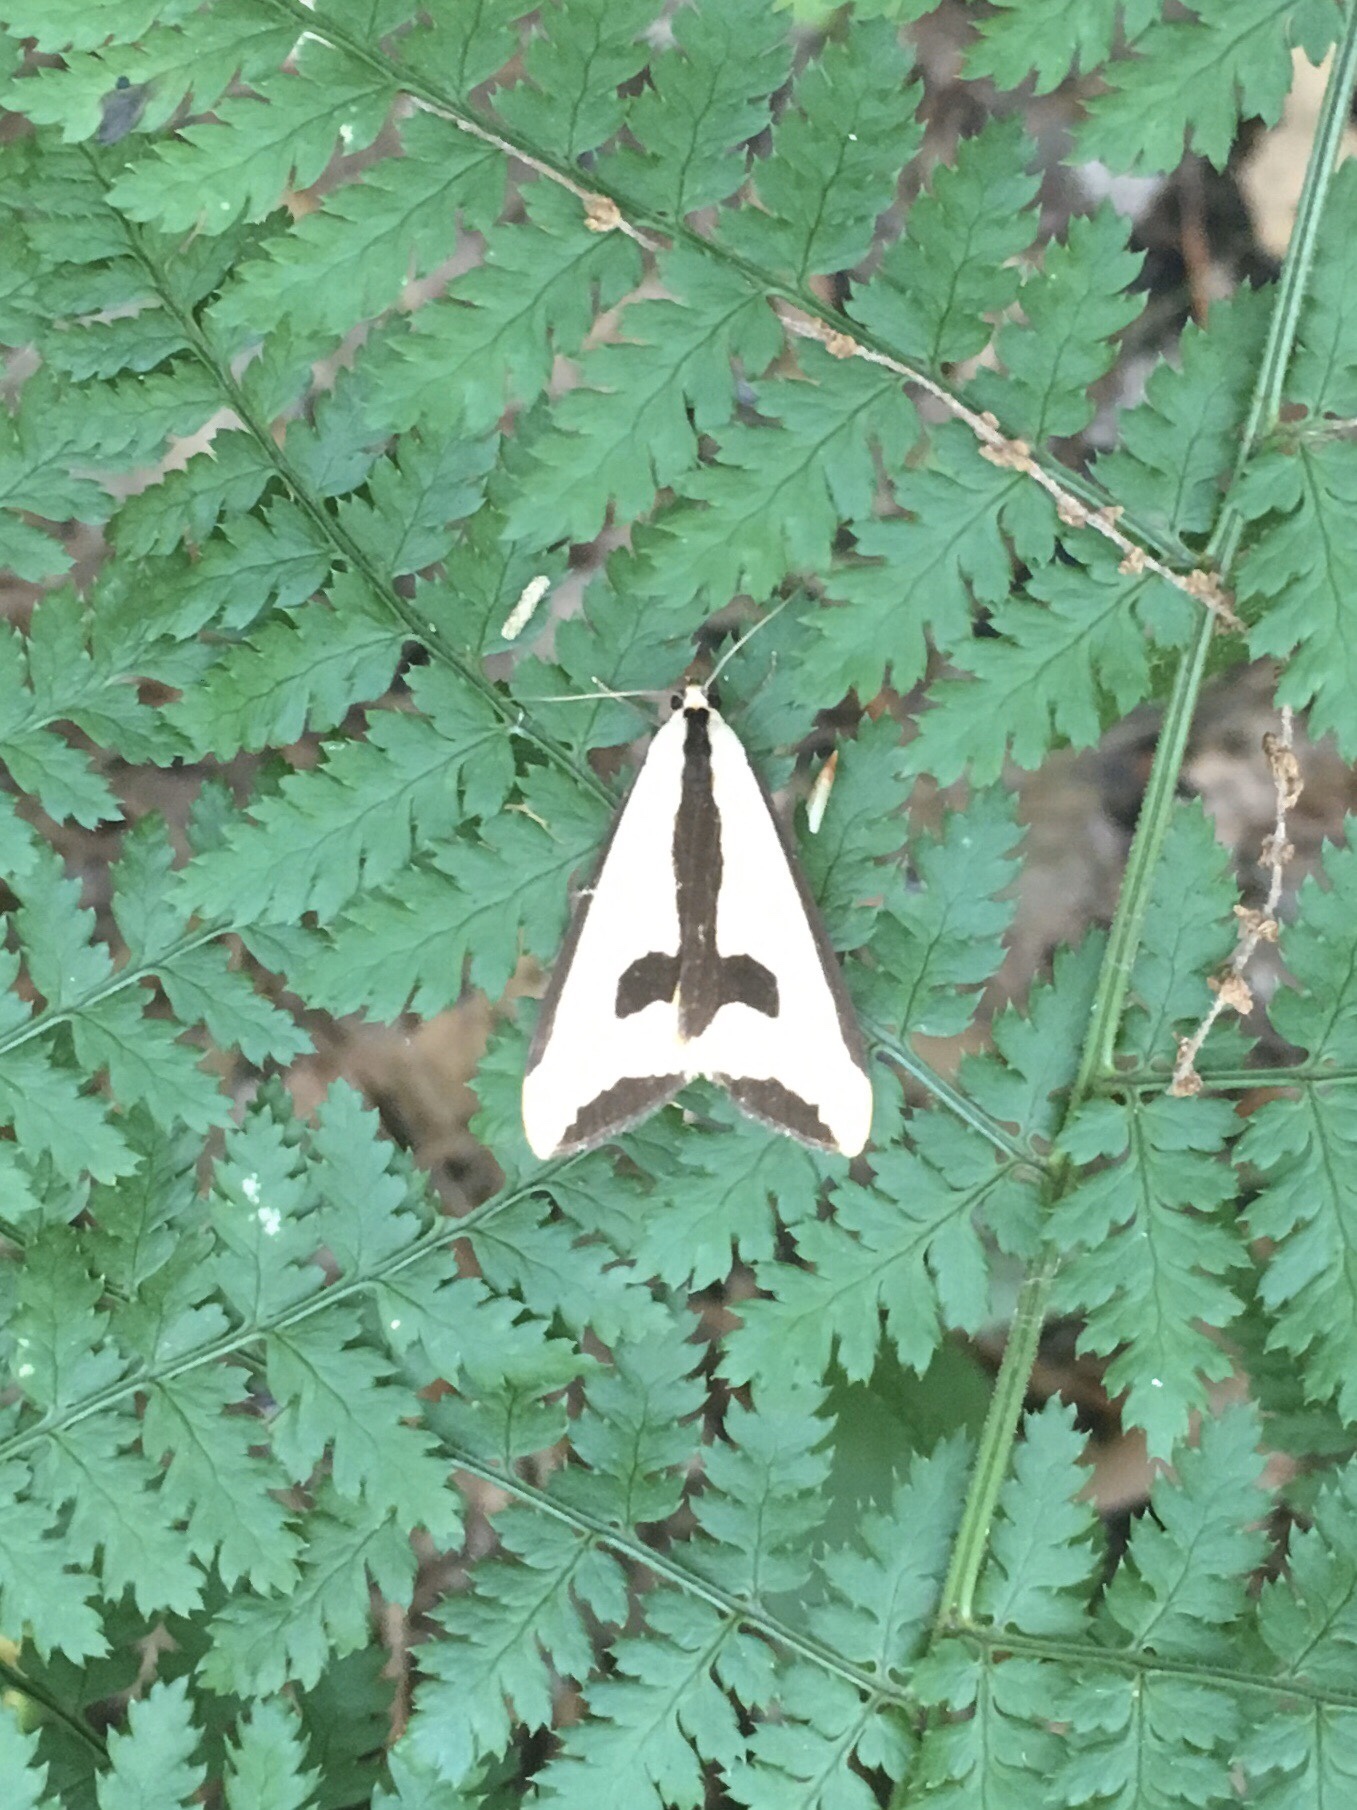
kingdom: Animalia
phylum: Arthropoda
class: Insecta
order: Lepidoptera
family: Erebidae
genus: Haploa
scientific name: Haploa clymene
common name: Clymene moth
